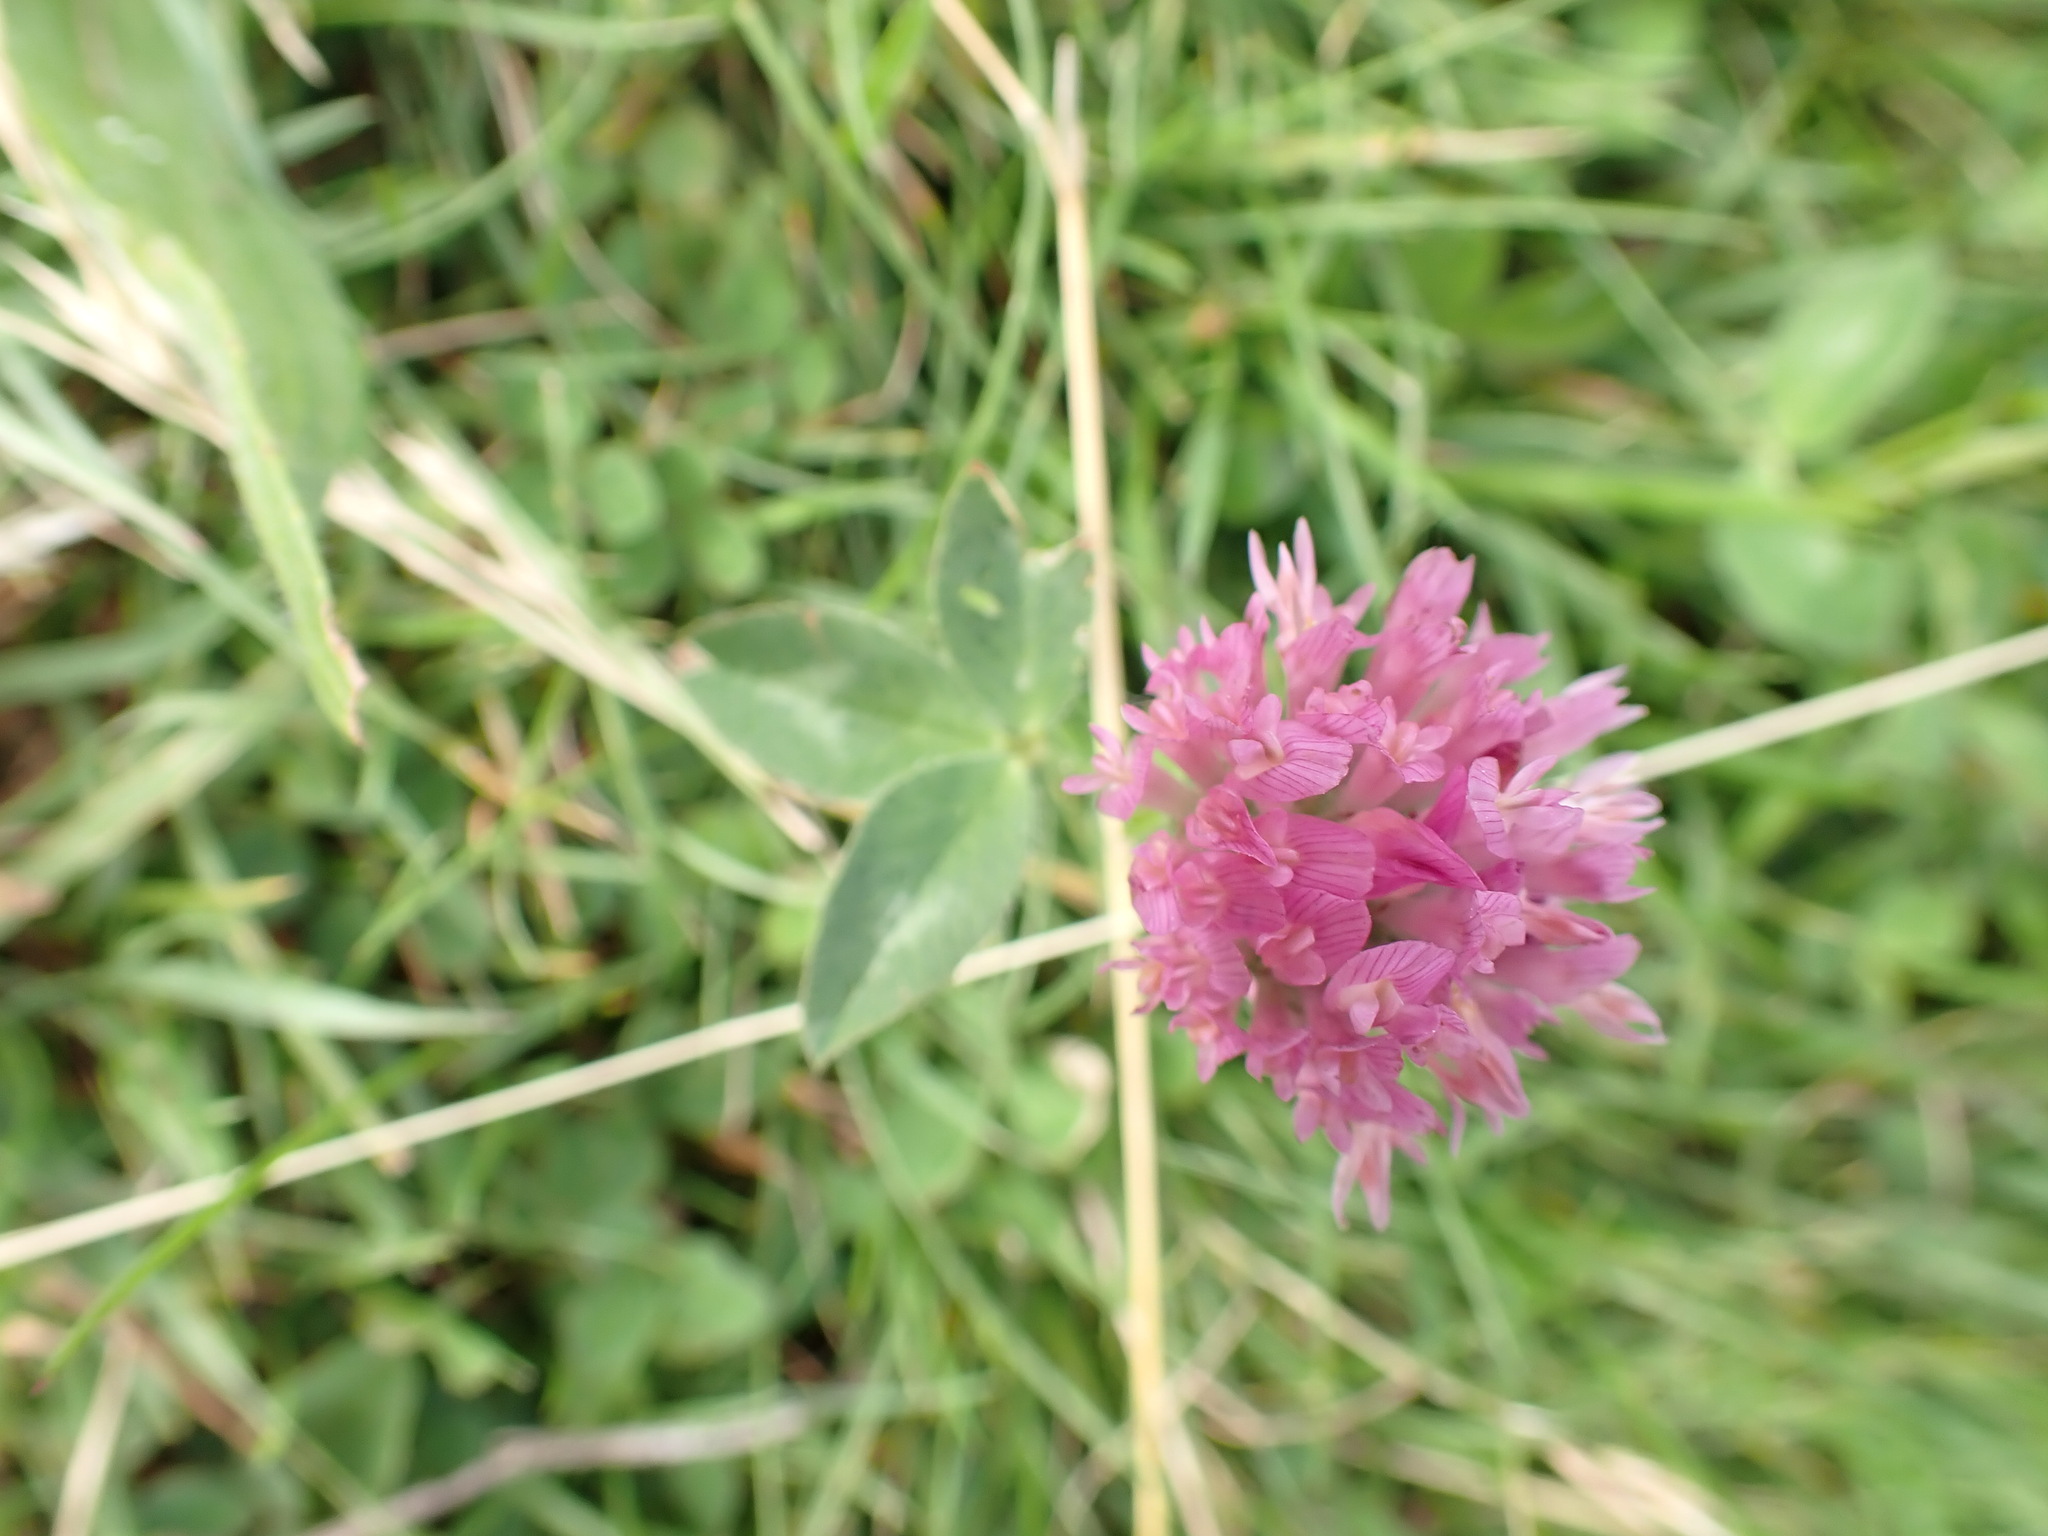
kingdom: Plantae
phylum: Tracheophyta
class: Magnoliopsida
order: Fabales
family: Fabaceae
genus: Trifolium
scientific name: Trifolium pratense
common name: Red clover
